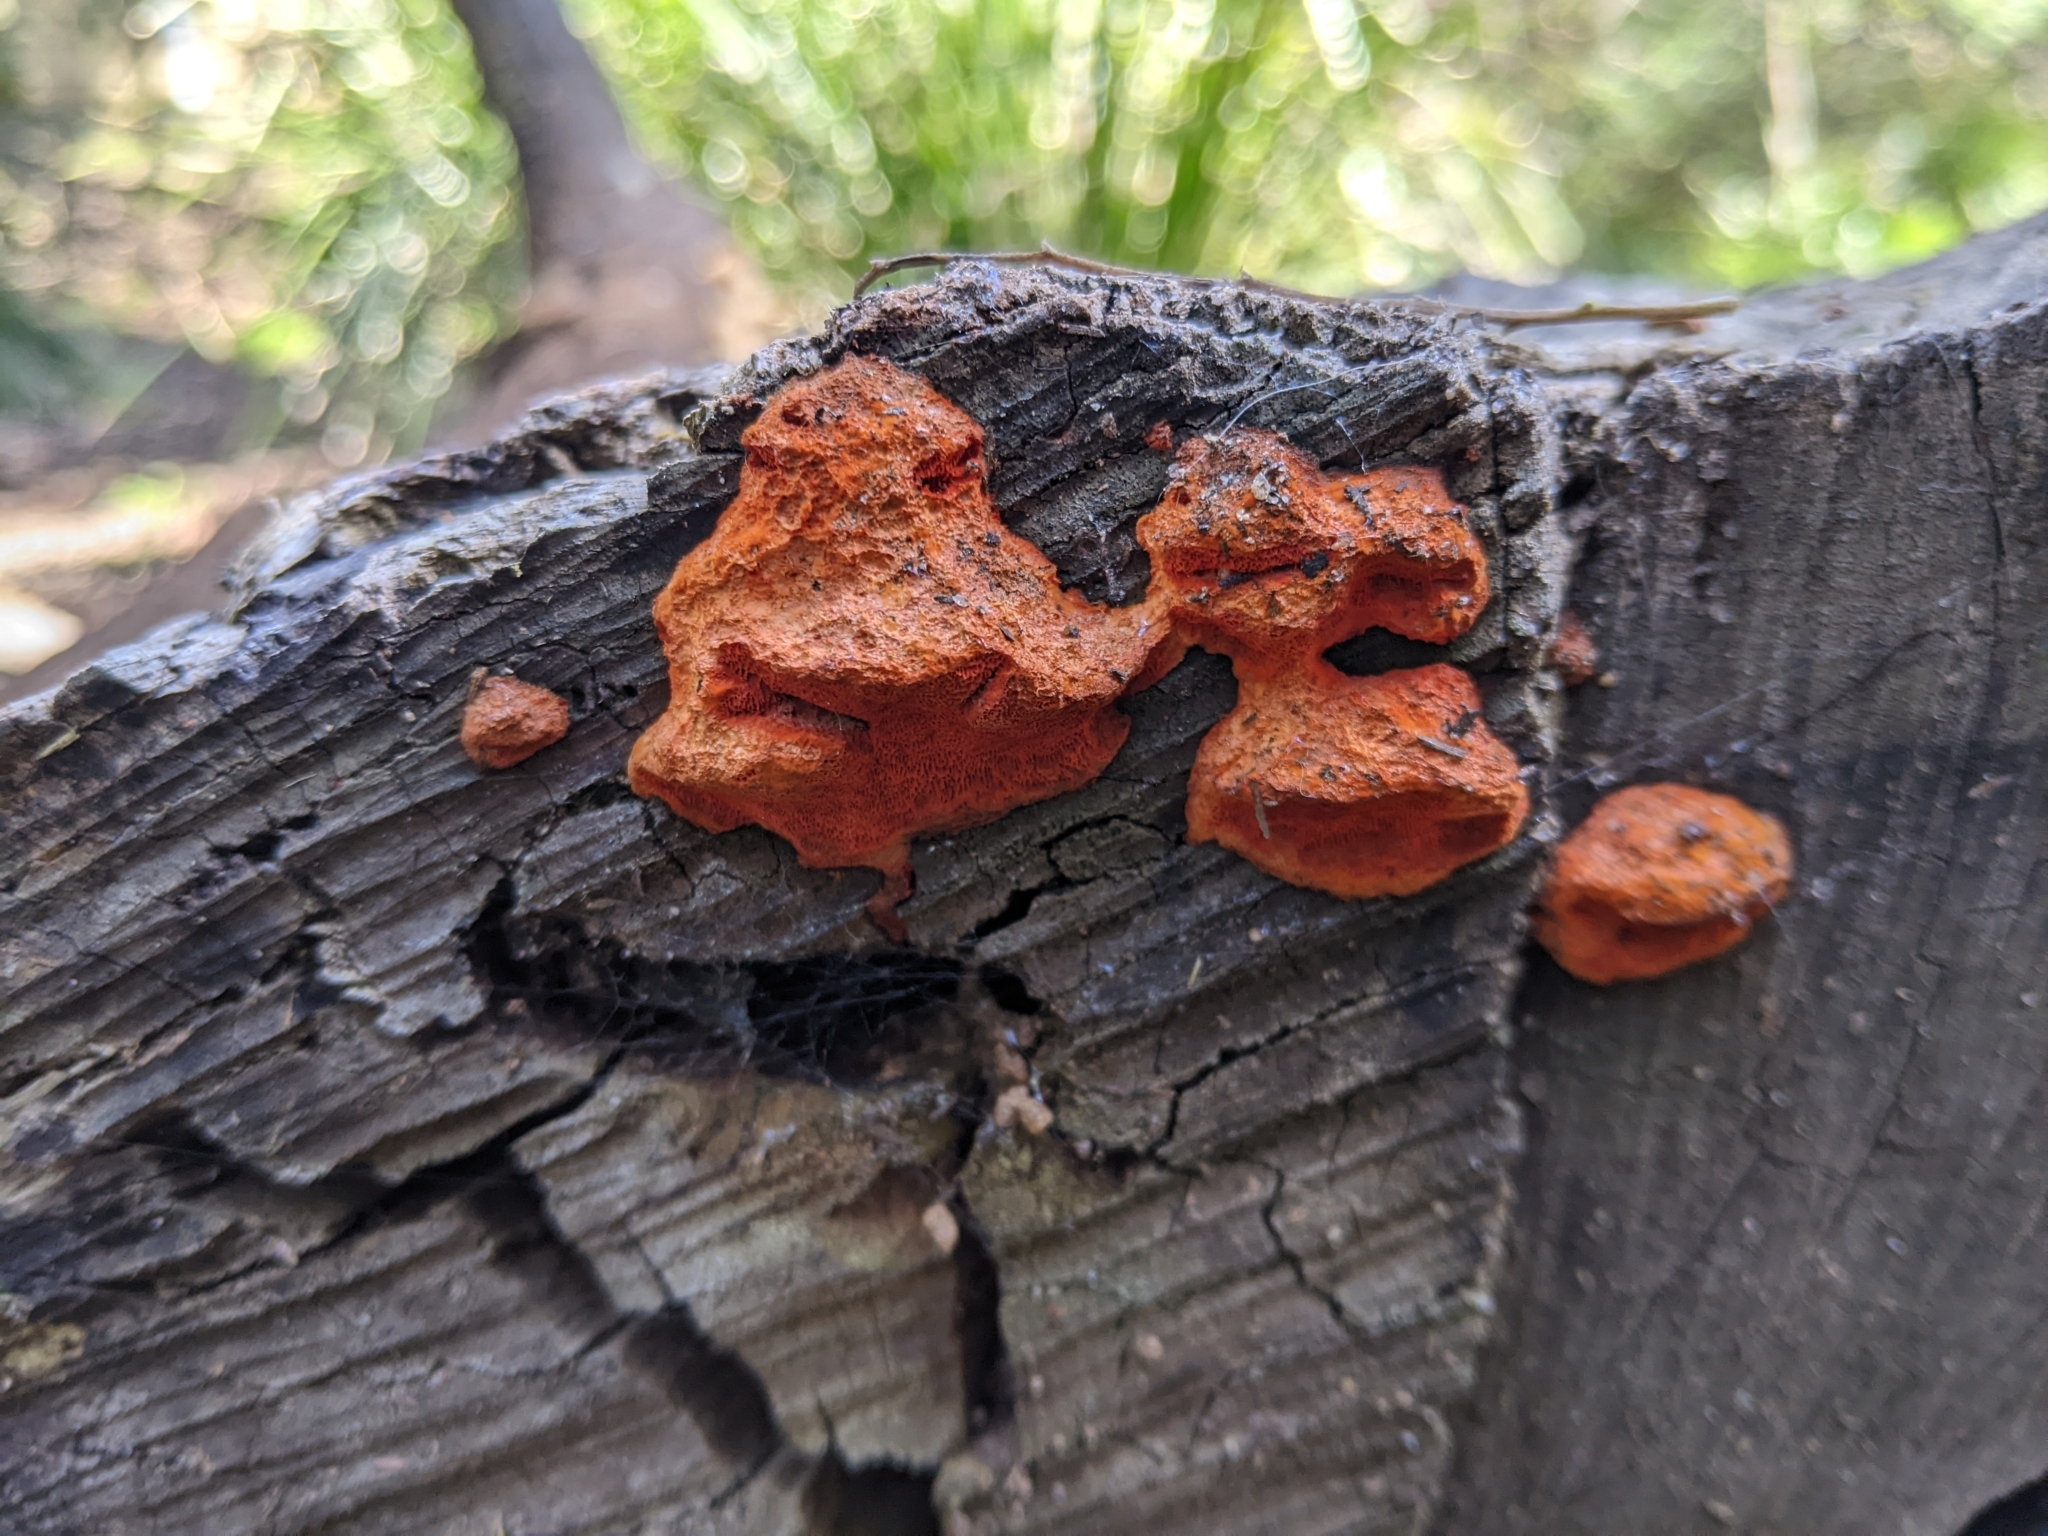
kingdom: Fungi
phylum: Basidiomycota
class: Agaricomycetes
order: Polyporales
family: Polyporaceae
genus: Trametes
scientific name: Trametes coccinea
